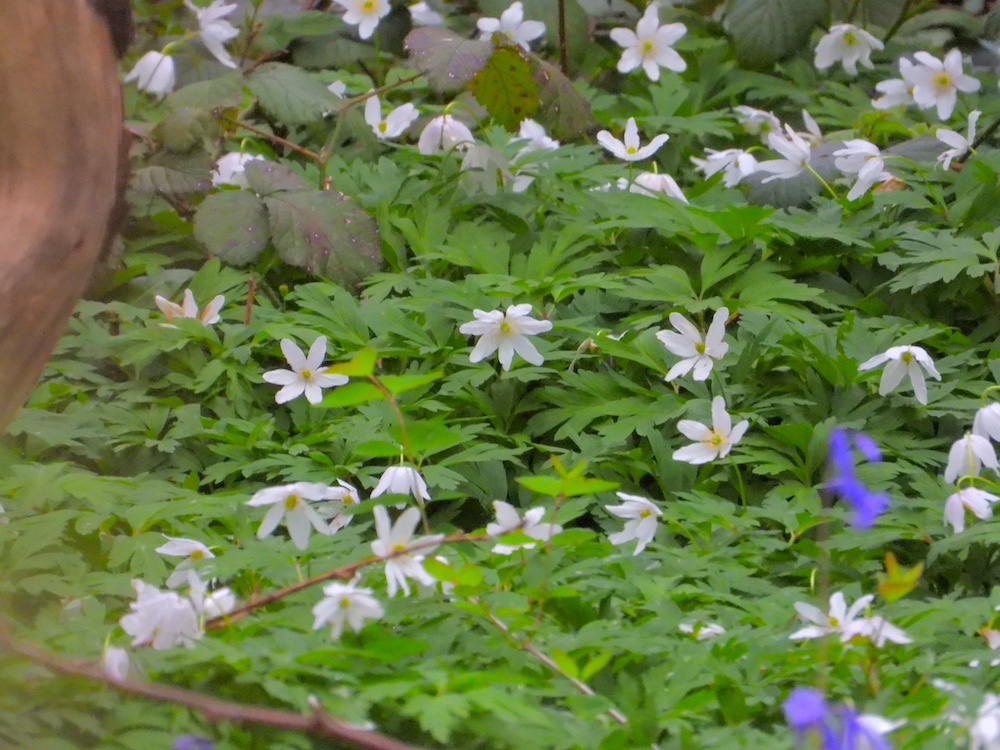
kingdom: Plantae
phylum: Tracheophyta
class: Magnoliopsida
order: Ranunculales
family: Ranunculaceae
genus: Anemone
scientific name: Anemone nemorosa
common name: Wood anemone
